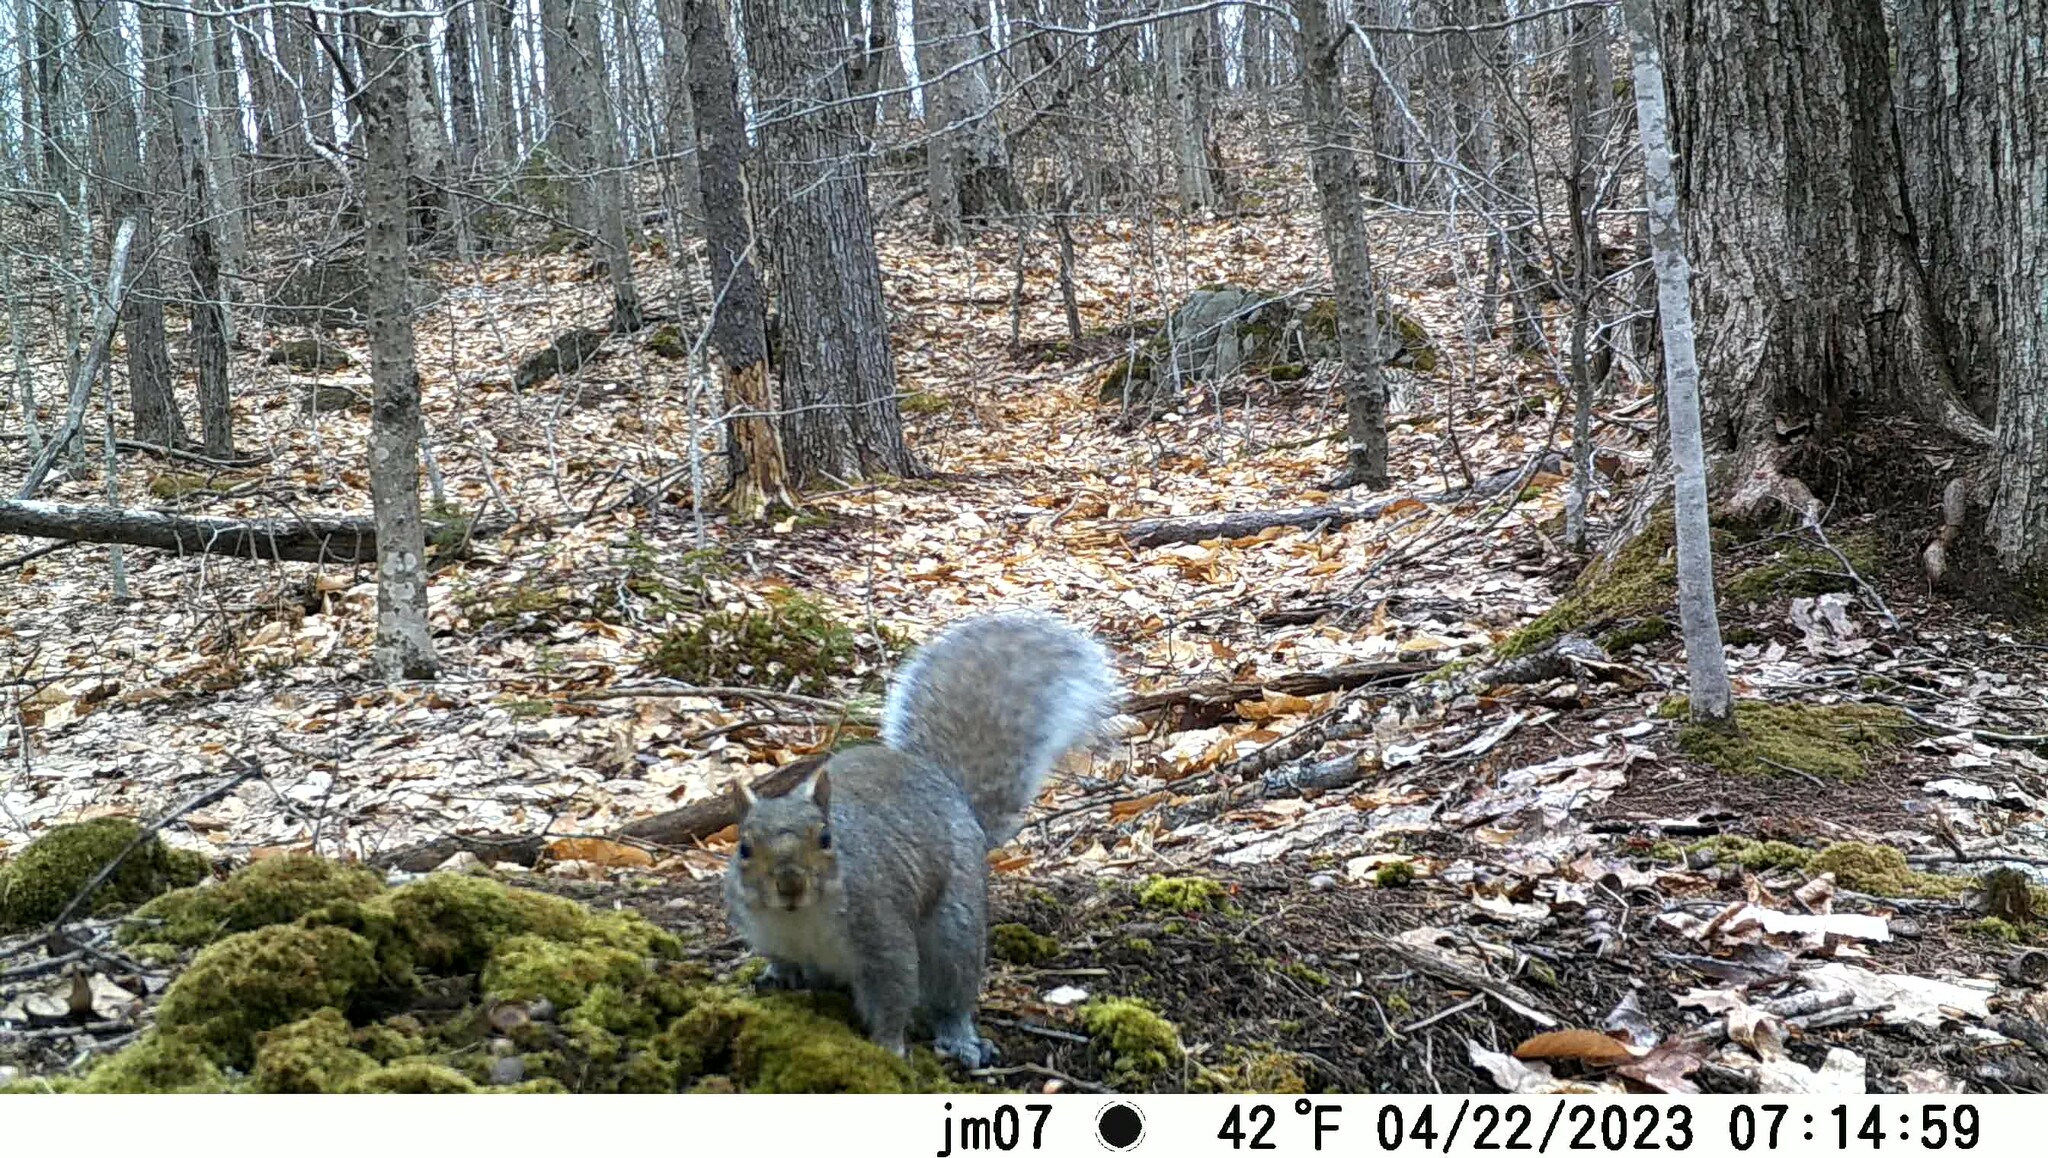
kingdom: Animalia
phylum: Chordata
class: Mammalia
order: Rodentia
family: Sciuridae
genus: Sciurus
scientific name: Sciurus carolinensis
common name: Eastern gray squirrel
